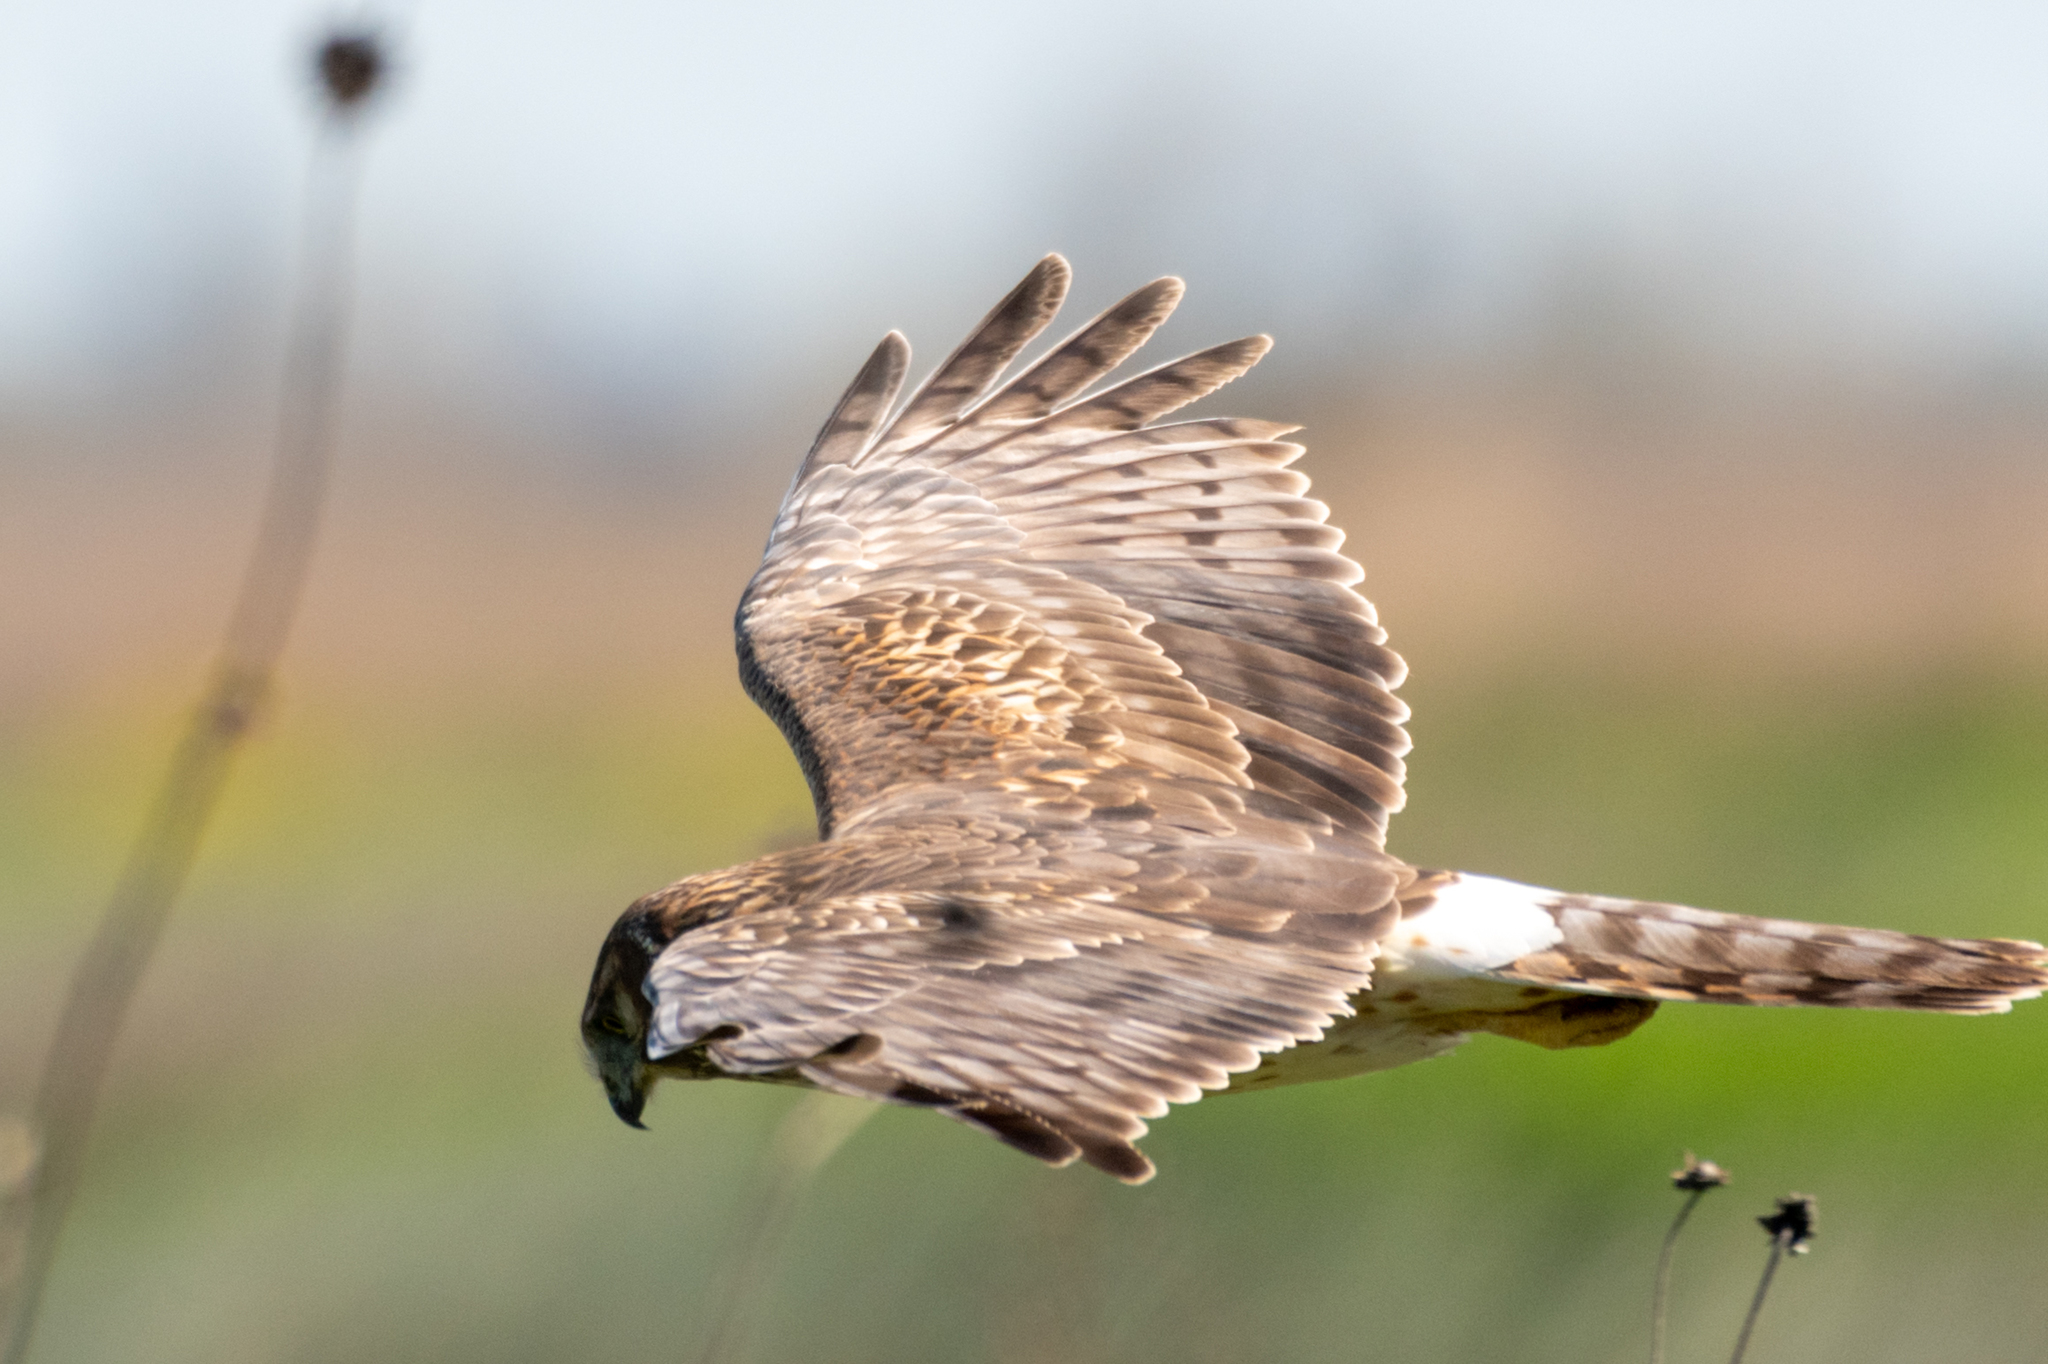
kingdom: Animalia
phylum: Chordata
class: Aves
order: Accipitriformes
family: Accipitridae
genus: Circus
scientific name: Circus cyaneus
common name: Hen harrier
